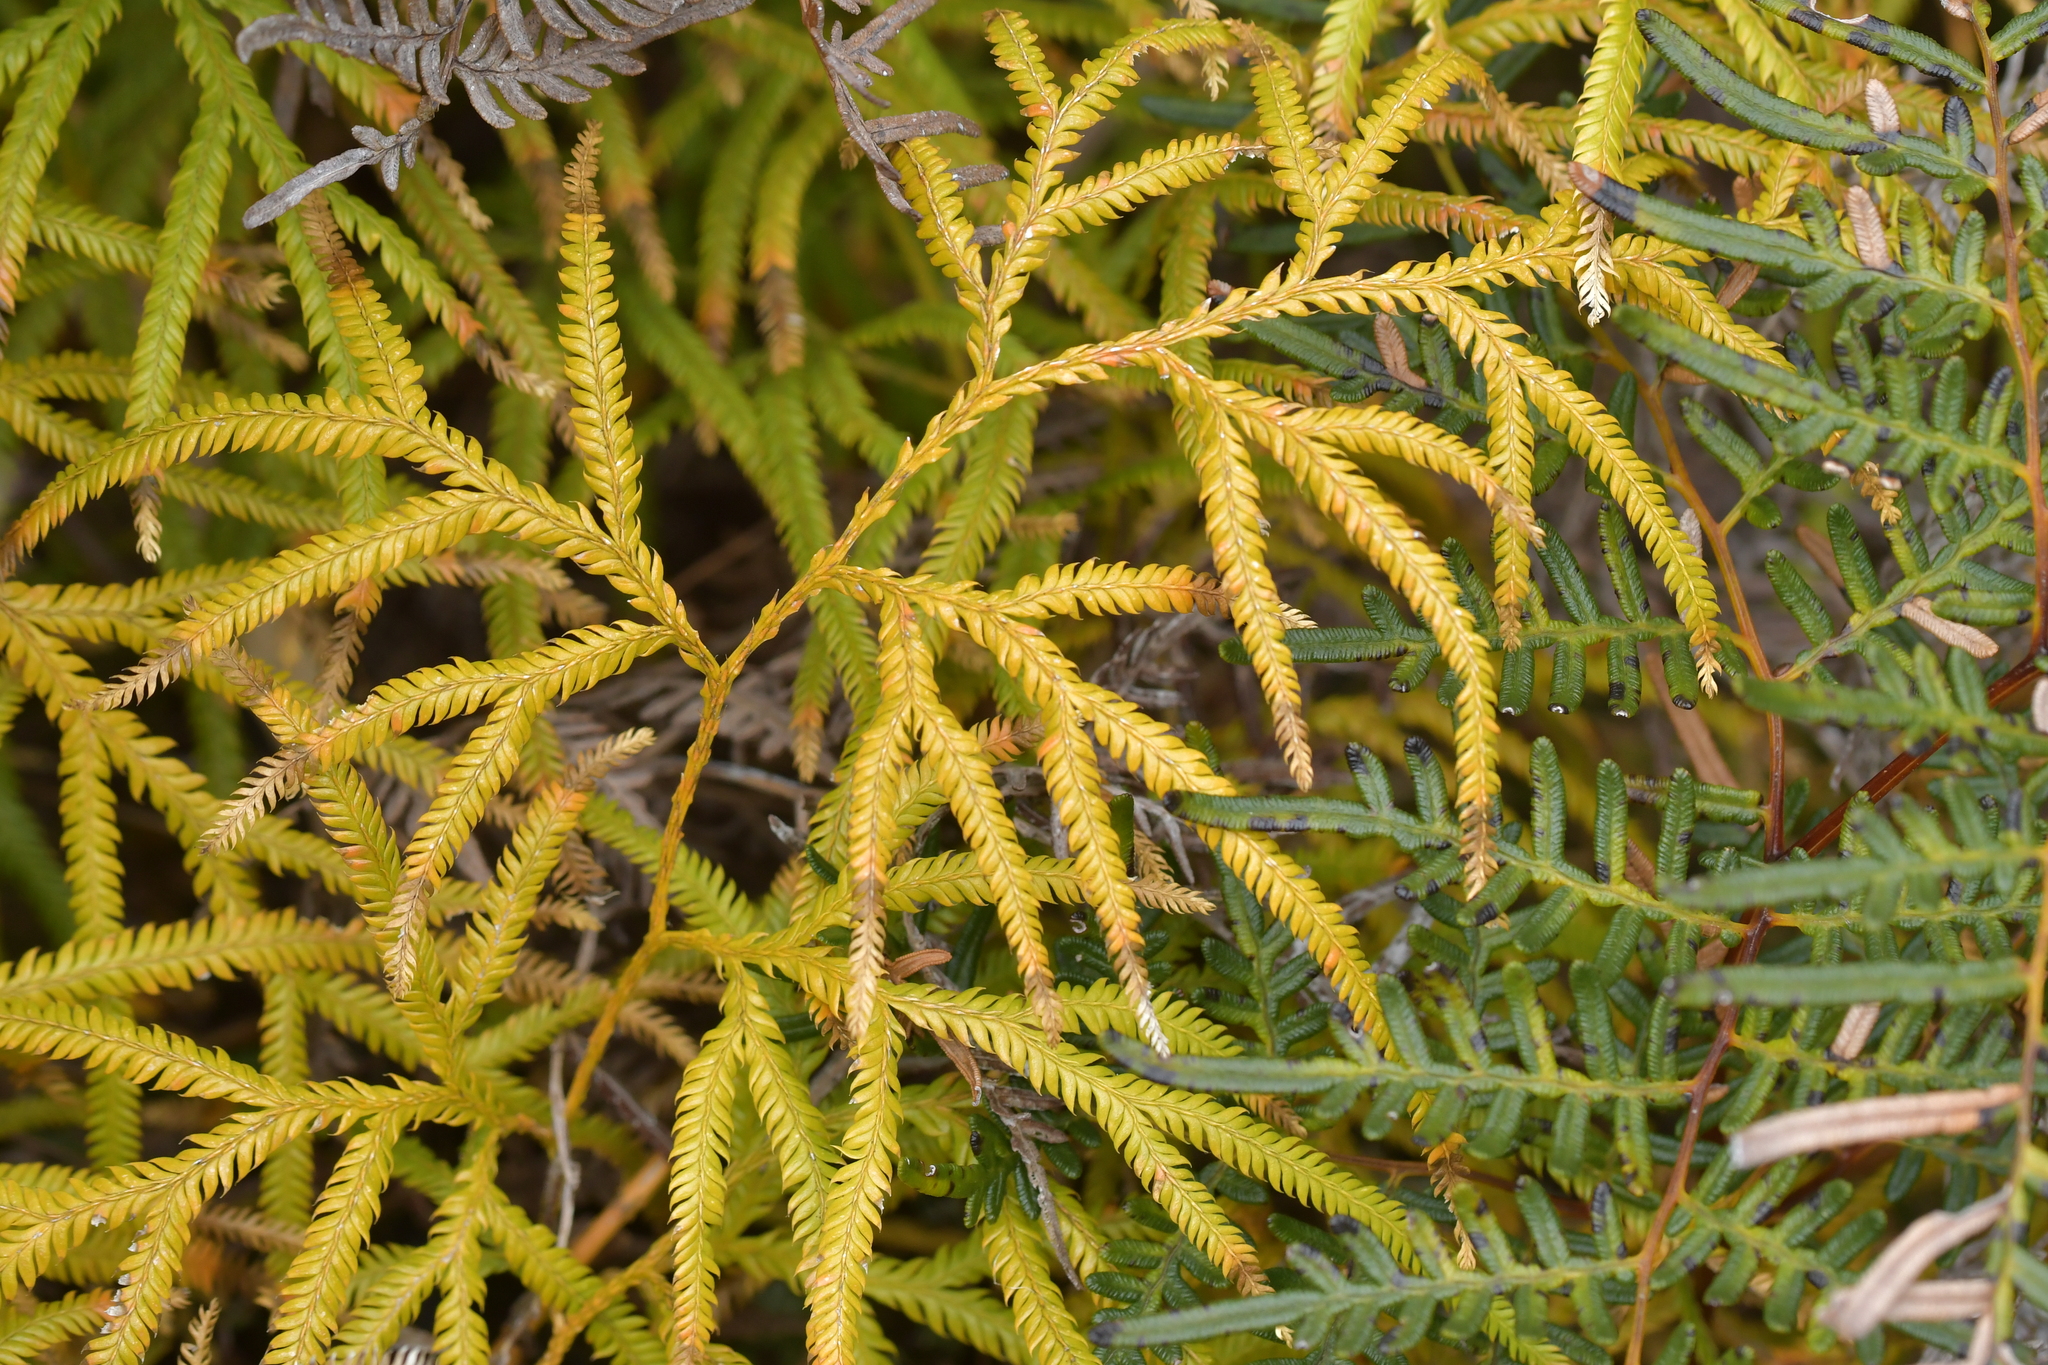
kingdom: Plantae
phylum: Tracheophyta
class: Lycopodiopsida
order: Lycopodiales
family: Lycopodiaceae
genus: Lycopodium
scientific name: Lycopodium volubile
